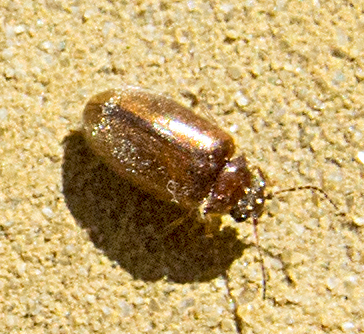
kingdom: Animalia
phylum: Arthropoda
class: Insecta
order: Coleoptera
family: Scirtidae
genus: Contacyphon
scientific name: Contacyphon laevipennis
